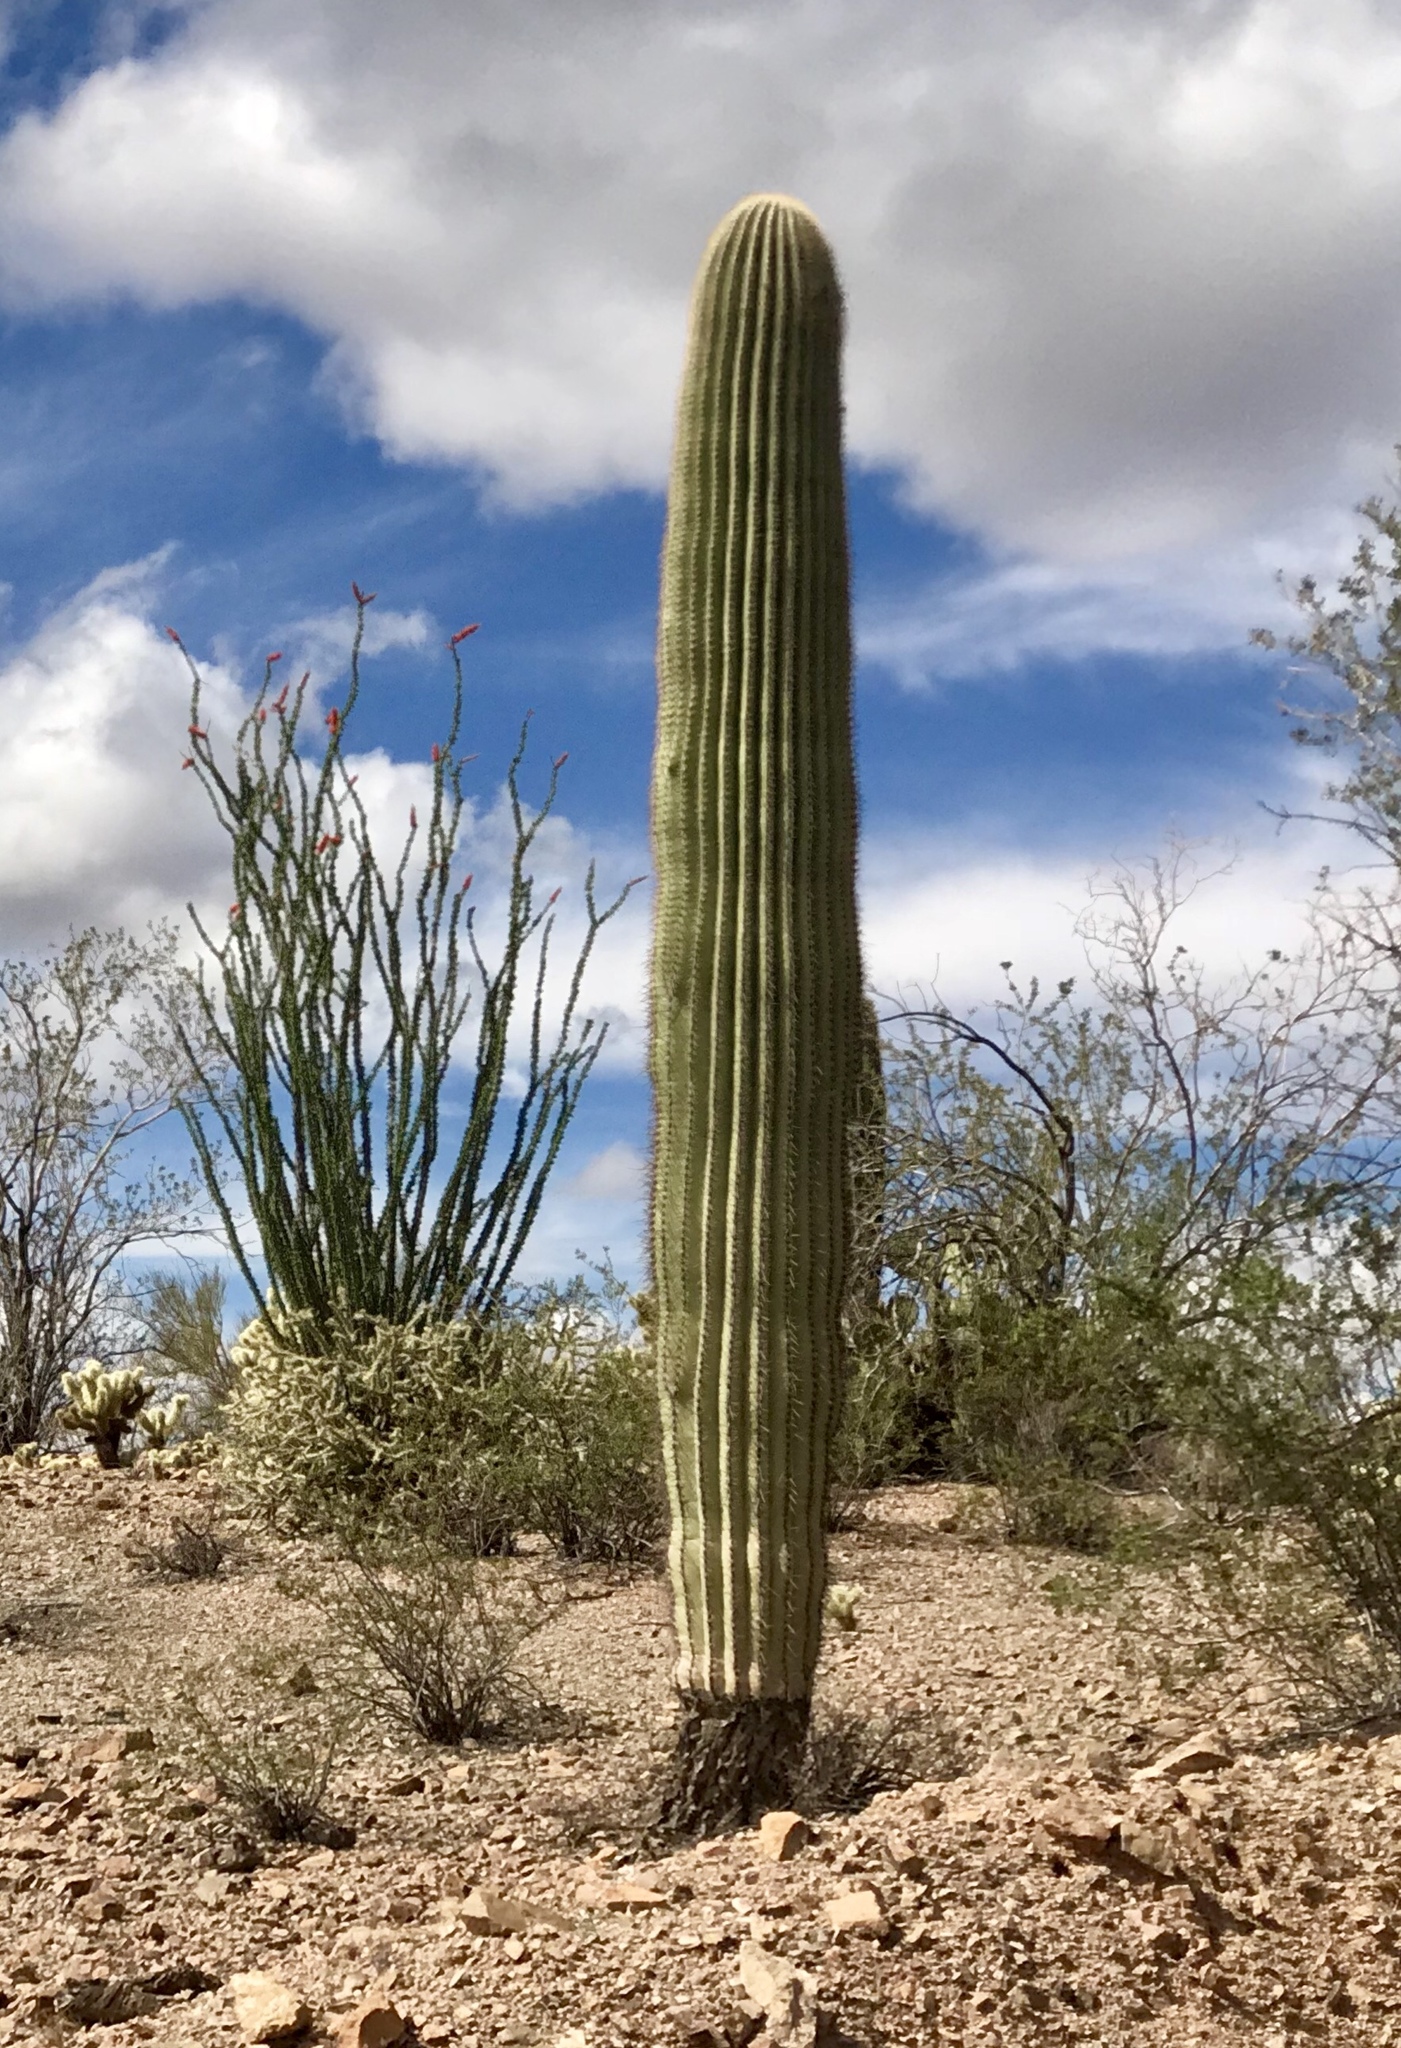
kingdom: Plantae
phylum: Tracheophyta
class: Magnoliopsida
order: Caryophyllales
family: Cactaceae
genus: Carnegiea
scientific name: Carnegiea gigantea
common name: Saguaro
